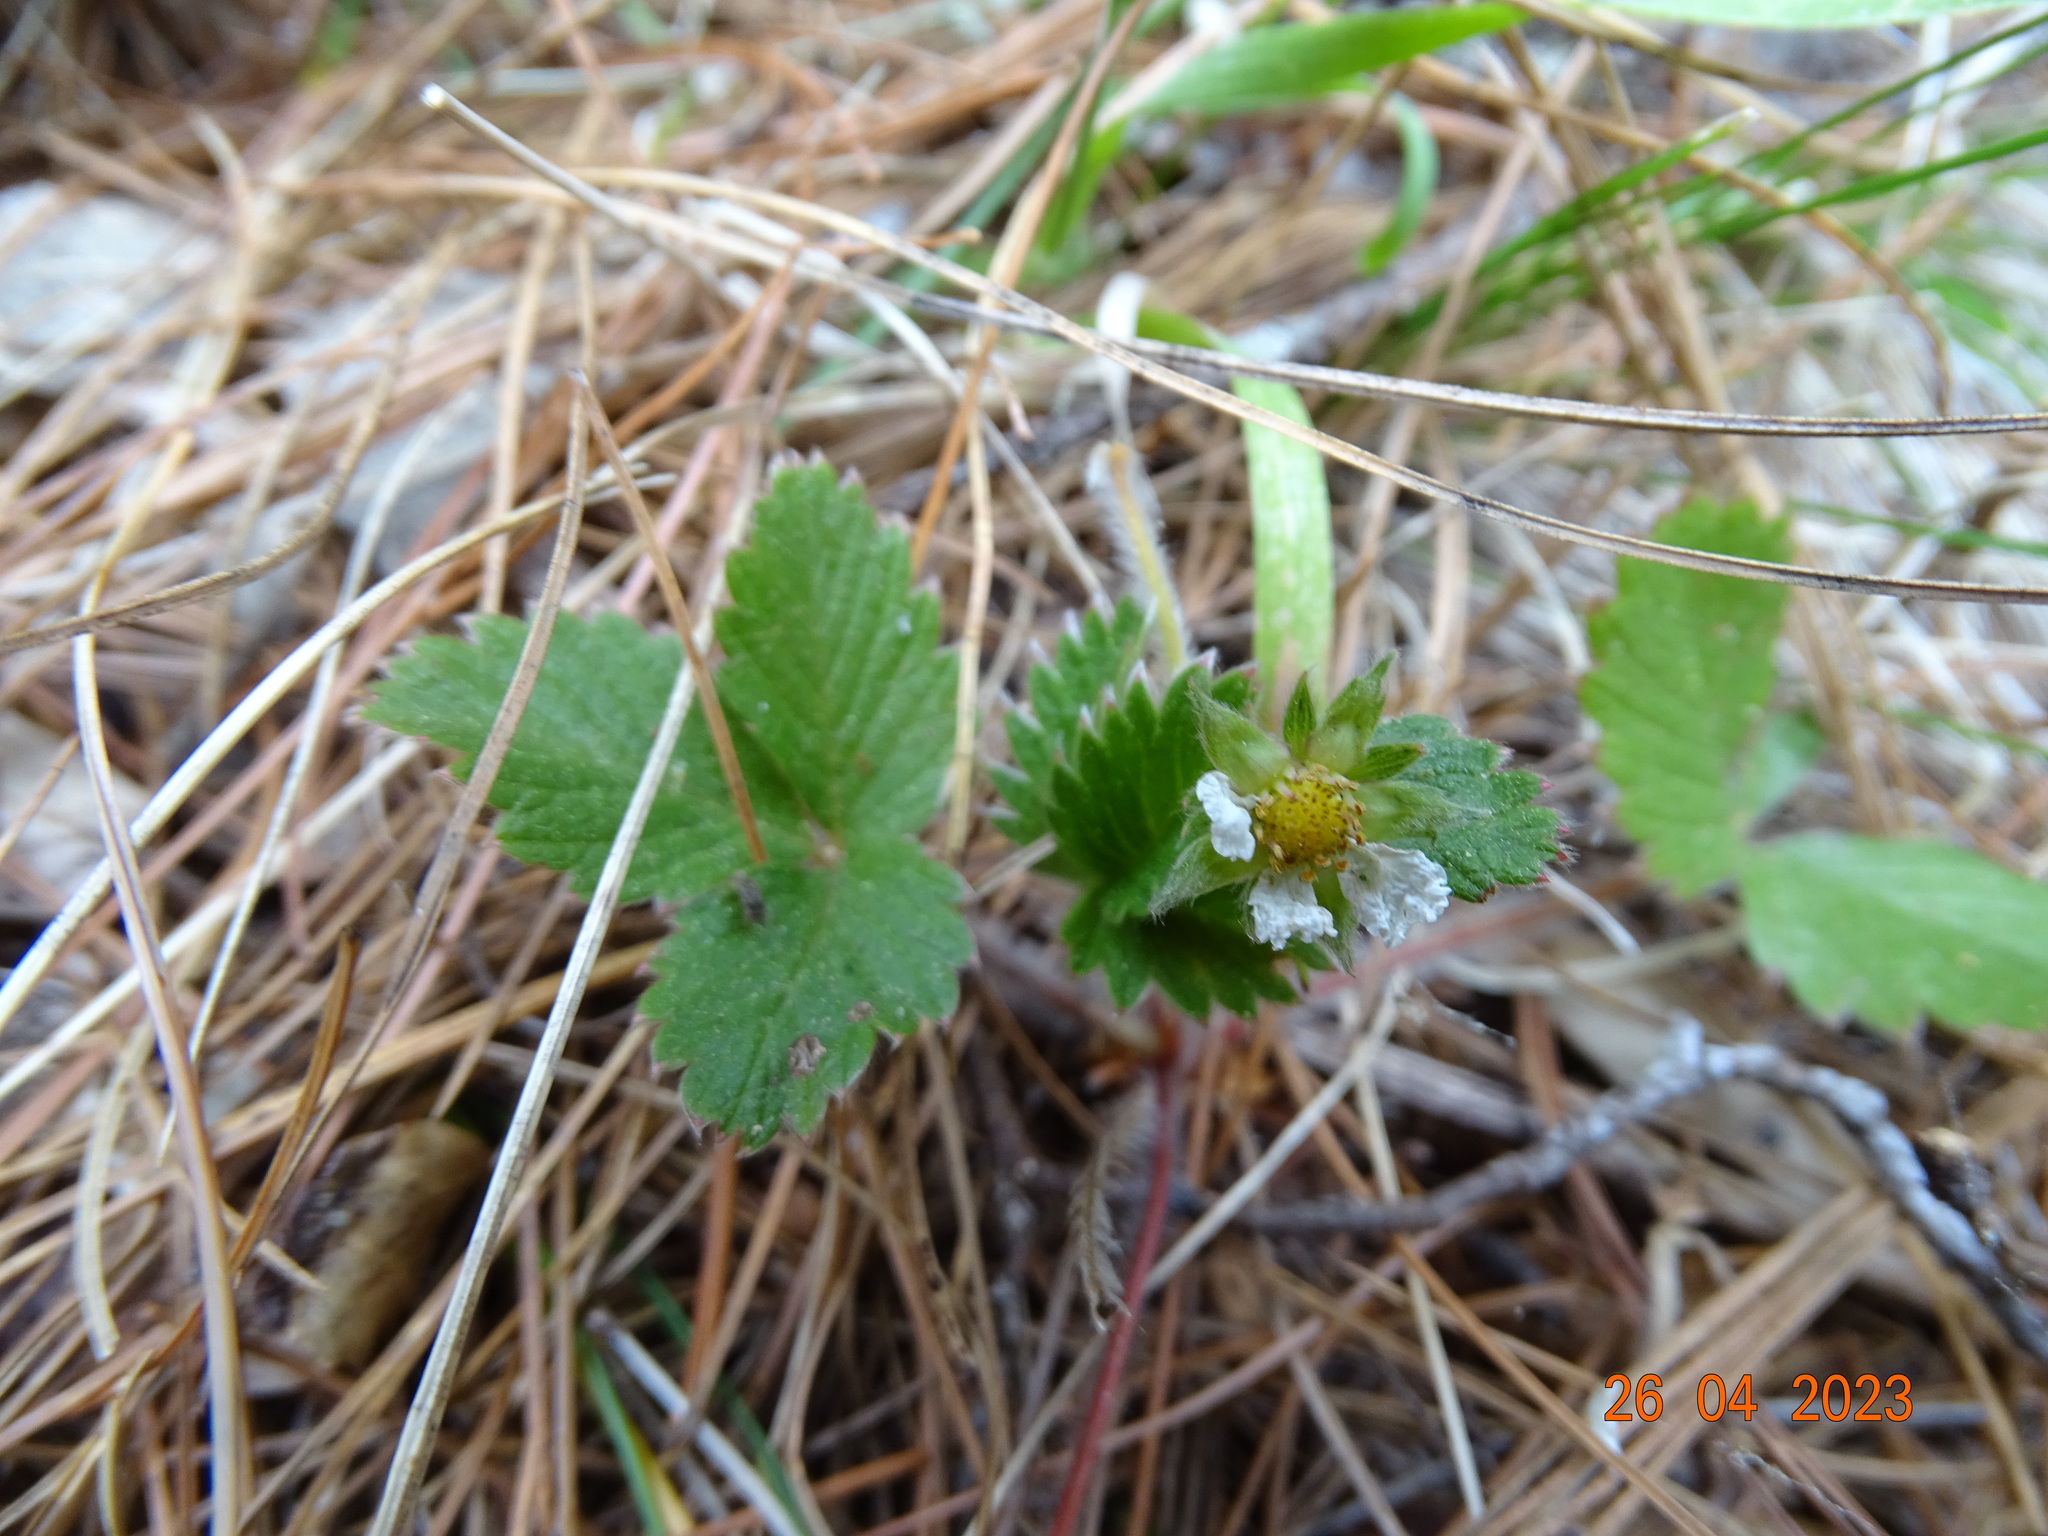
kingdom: Plantae
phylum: Tracheophyta
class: Magnoliopsida
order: Rosales
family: Rosaceae
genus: Fragaria
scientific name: Fragaria vesca
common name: Wild strawberry
